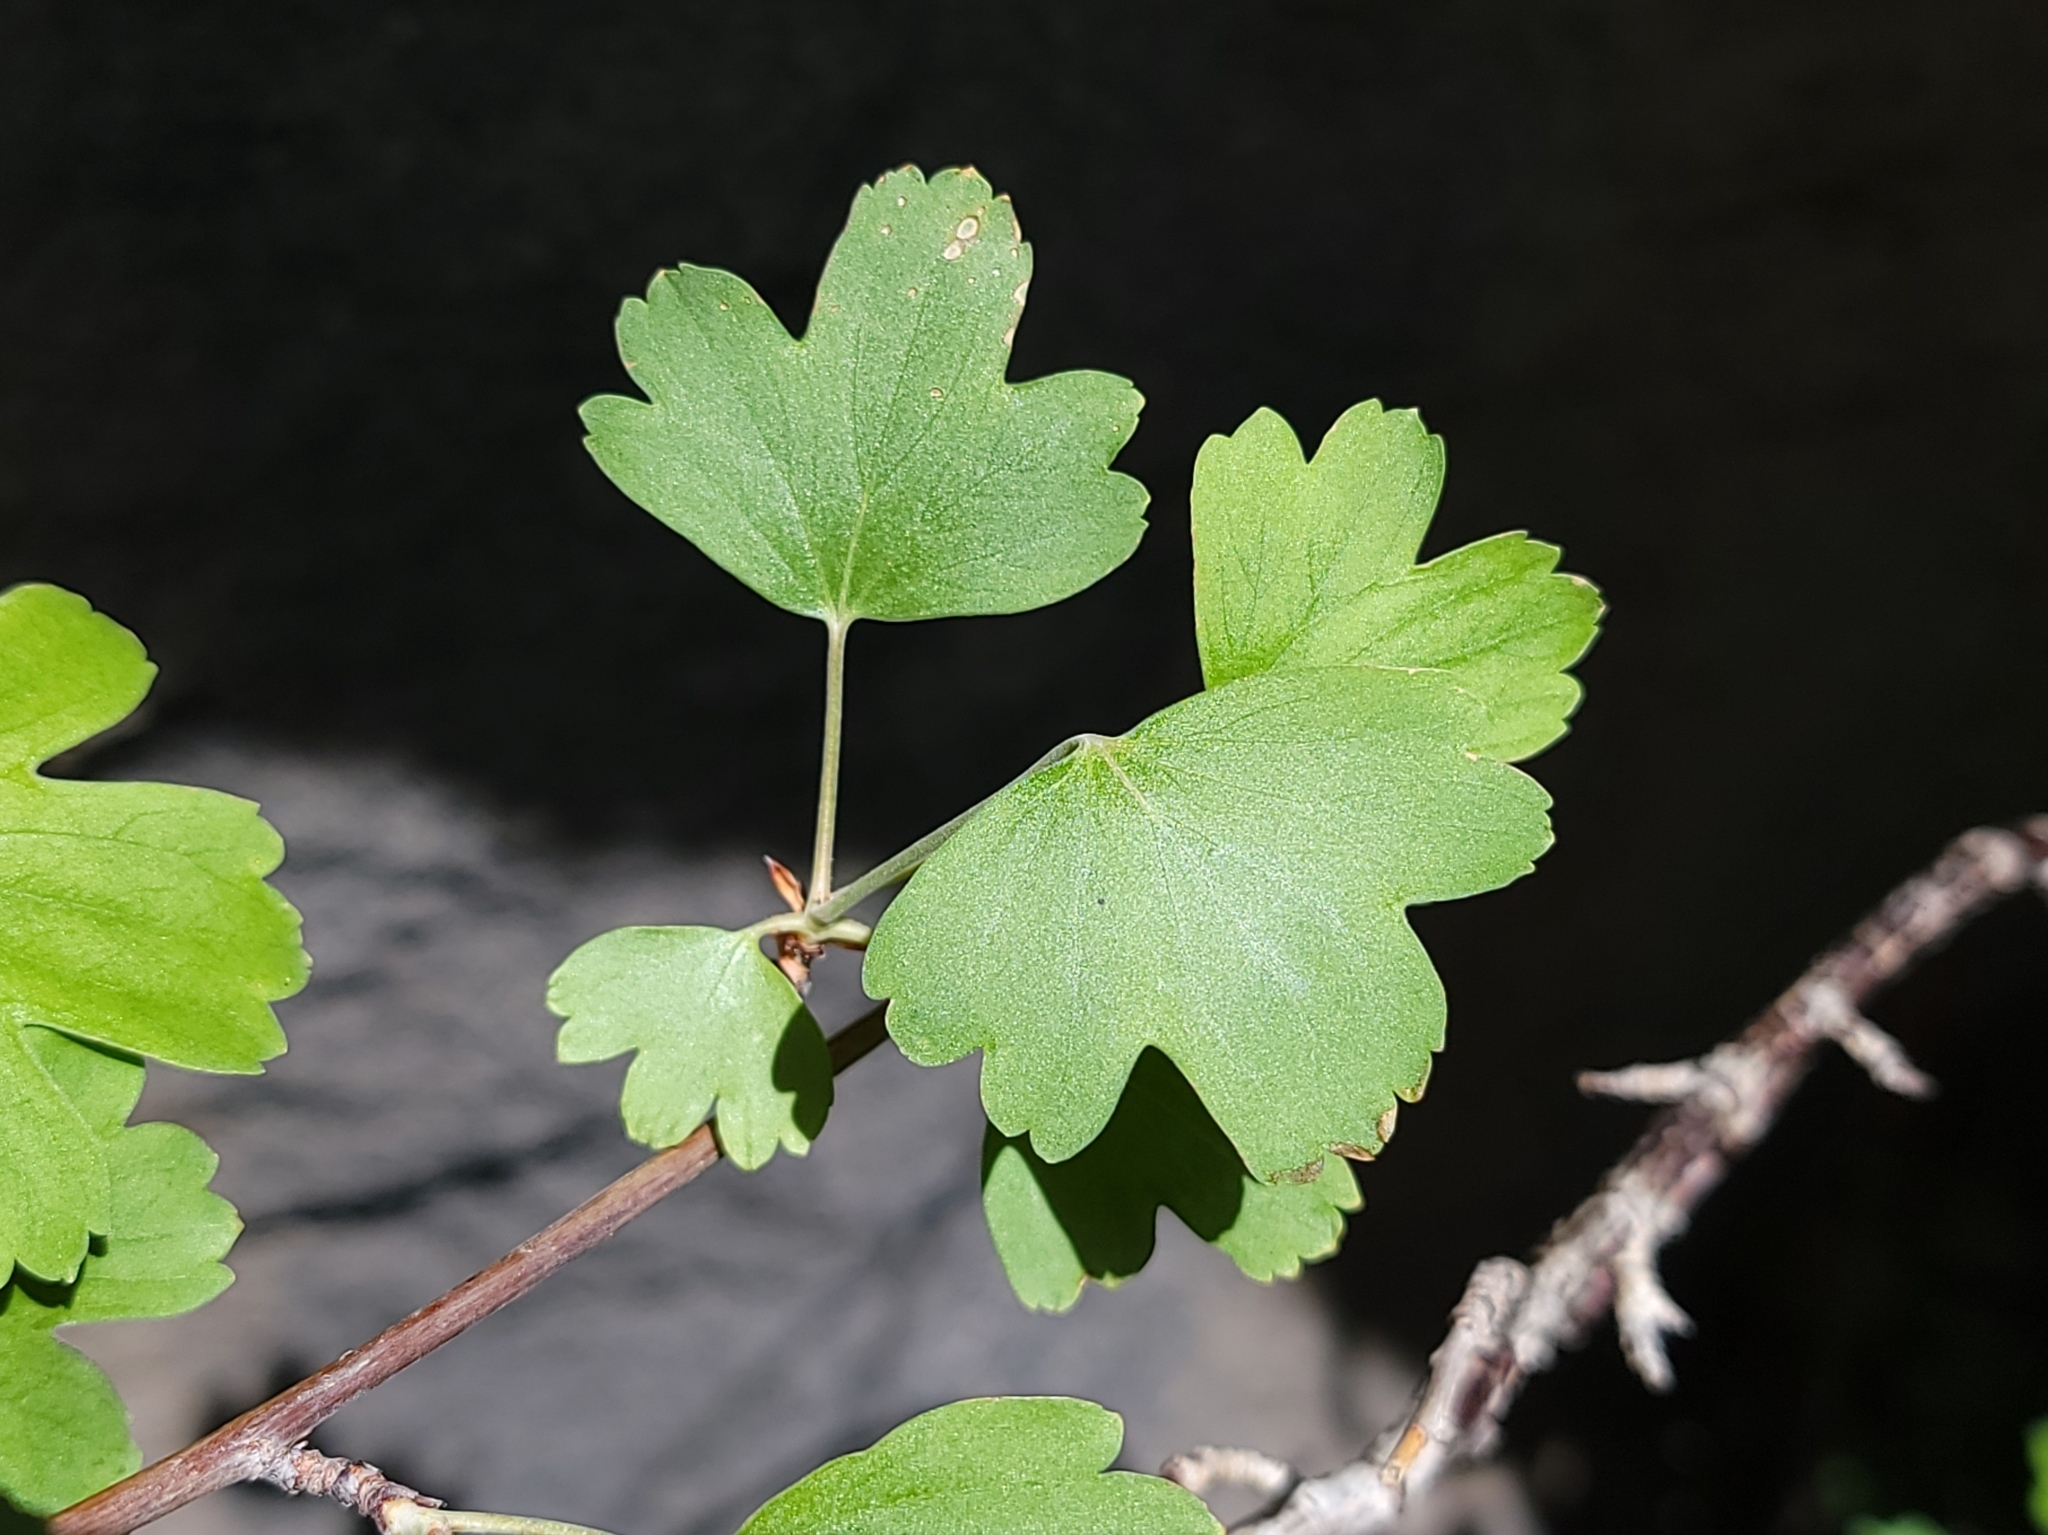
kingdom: Plantae
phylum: Tracheophyta
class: Magnoliopsida
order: Saxifragales
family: Grossulariaceae
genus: Ribes
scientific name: Ribes aureum
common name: Golden currant
